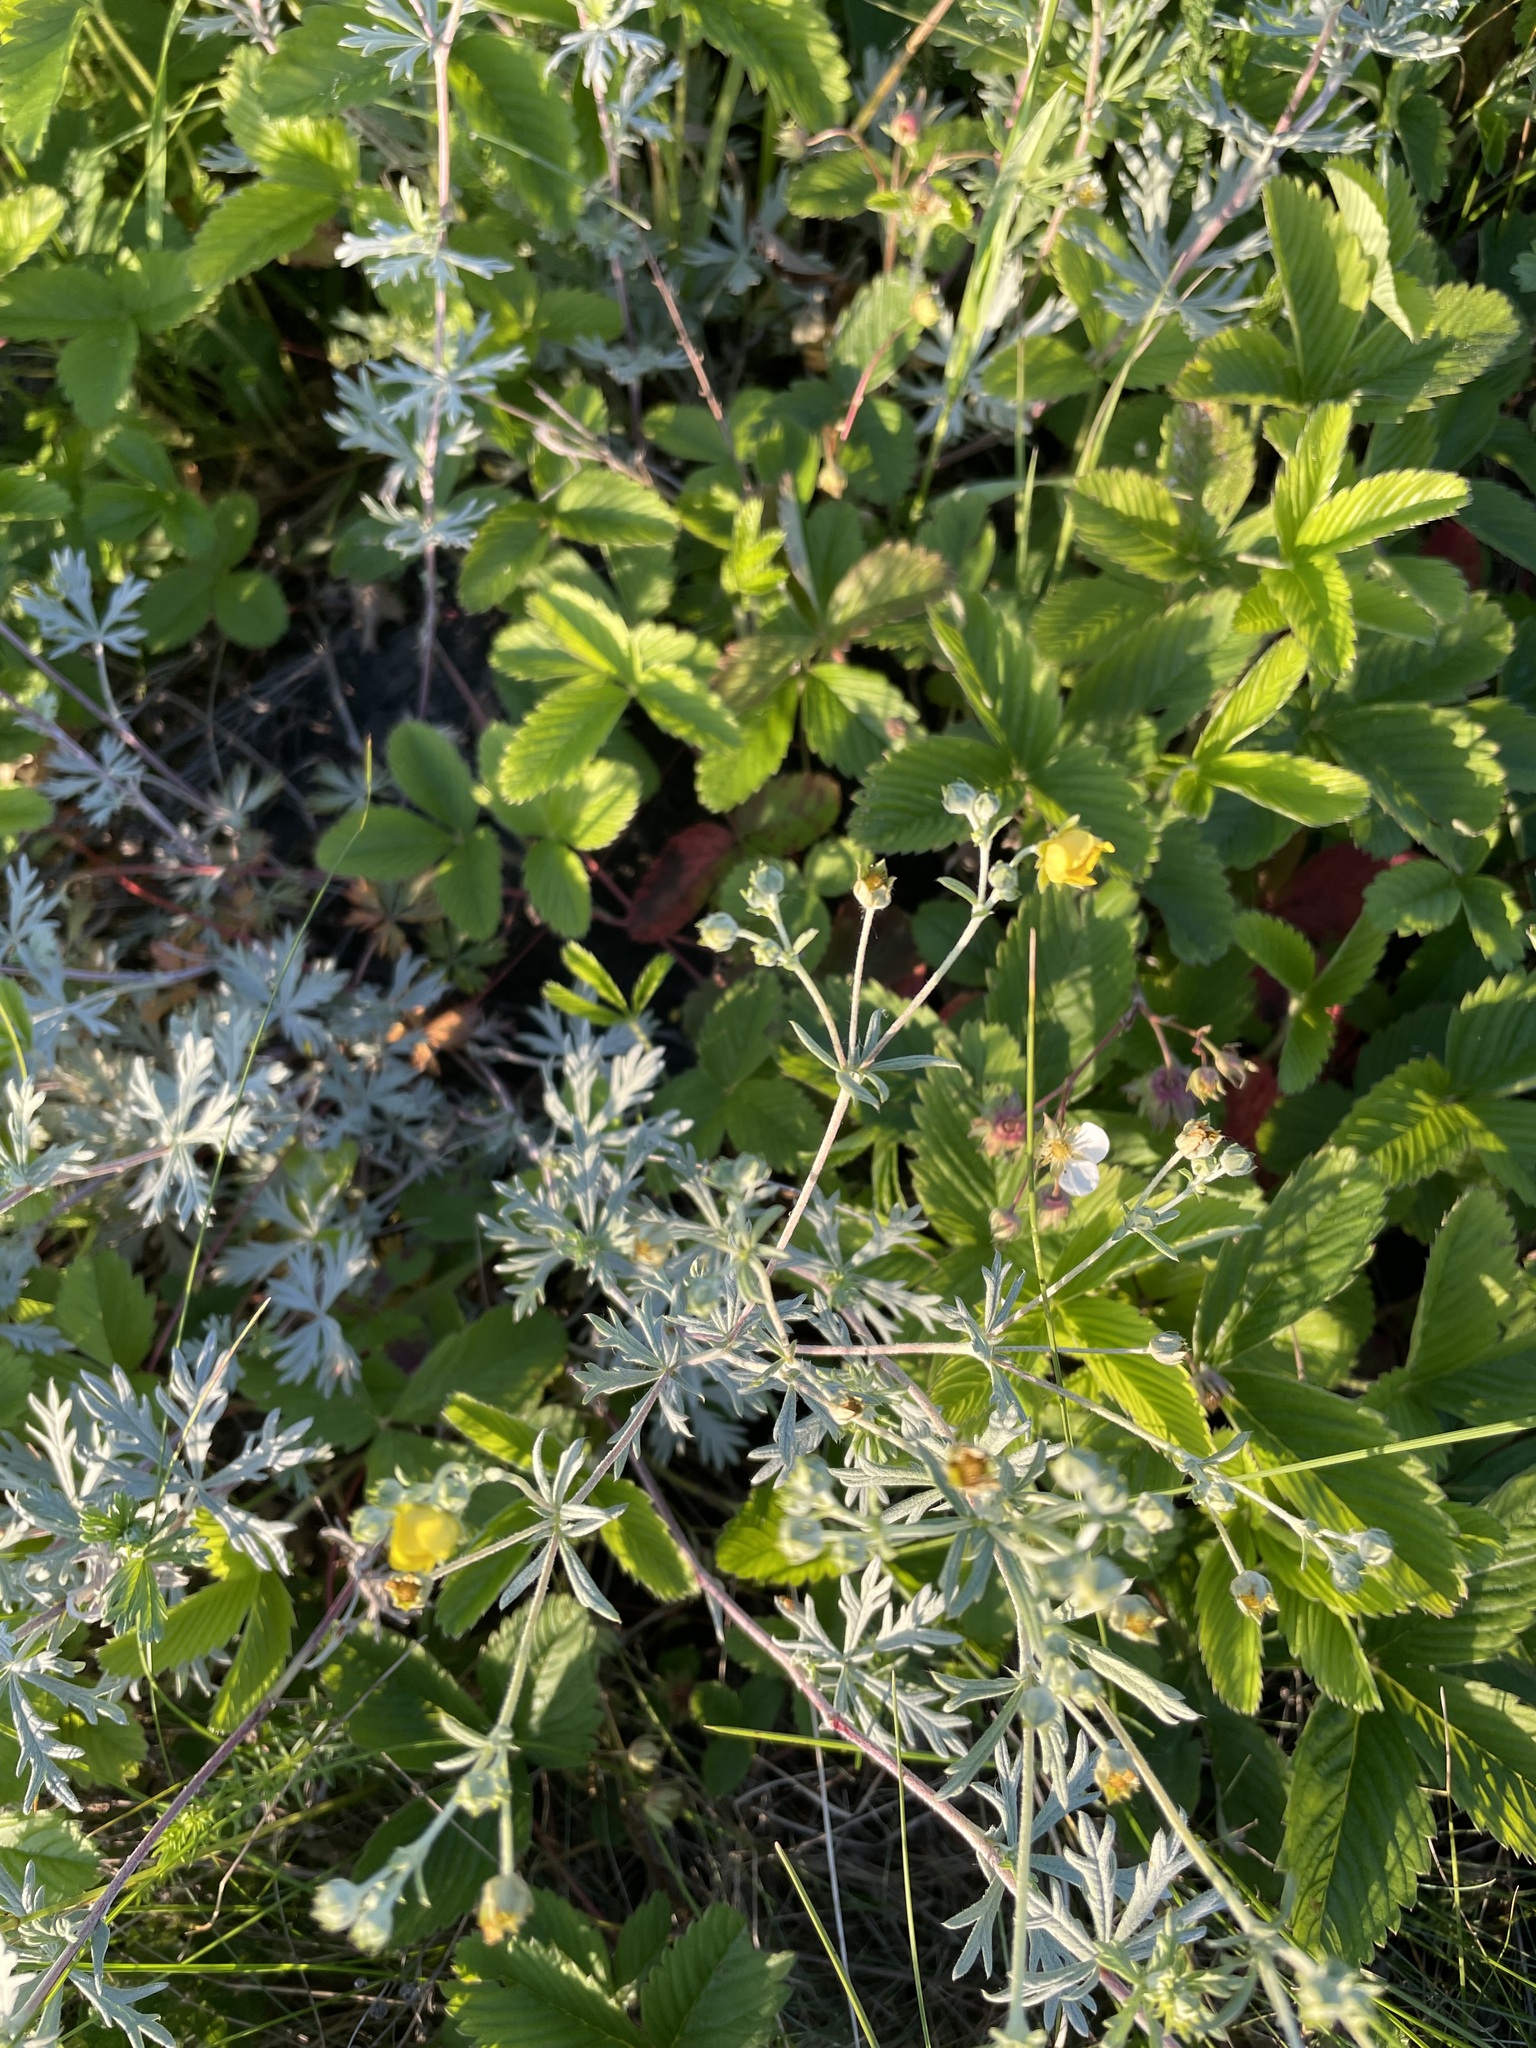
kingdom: Plantae
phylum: Tracheophyta
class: Magnoliopsida
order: Rosales
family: Rosaceae
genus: Potentilla
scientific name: Potentilla argentea
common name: Hoary cinquefoil
